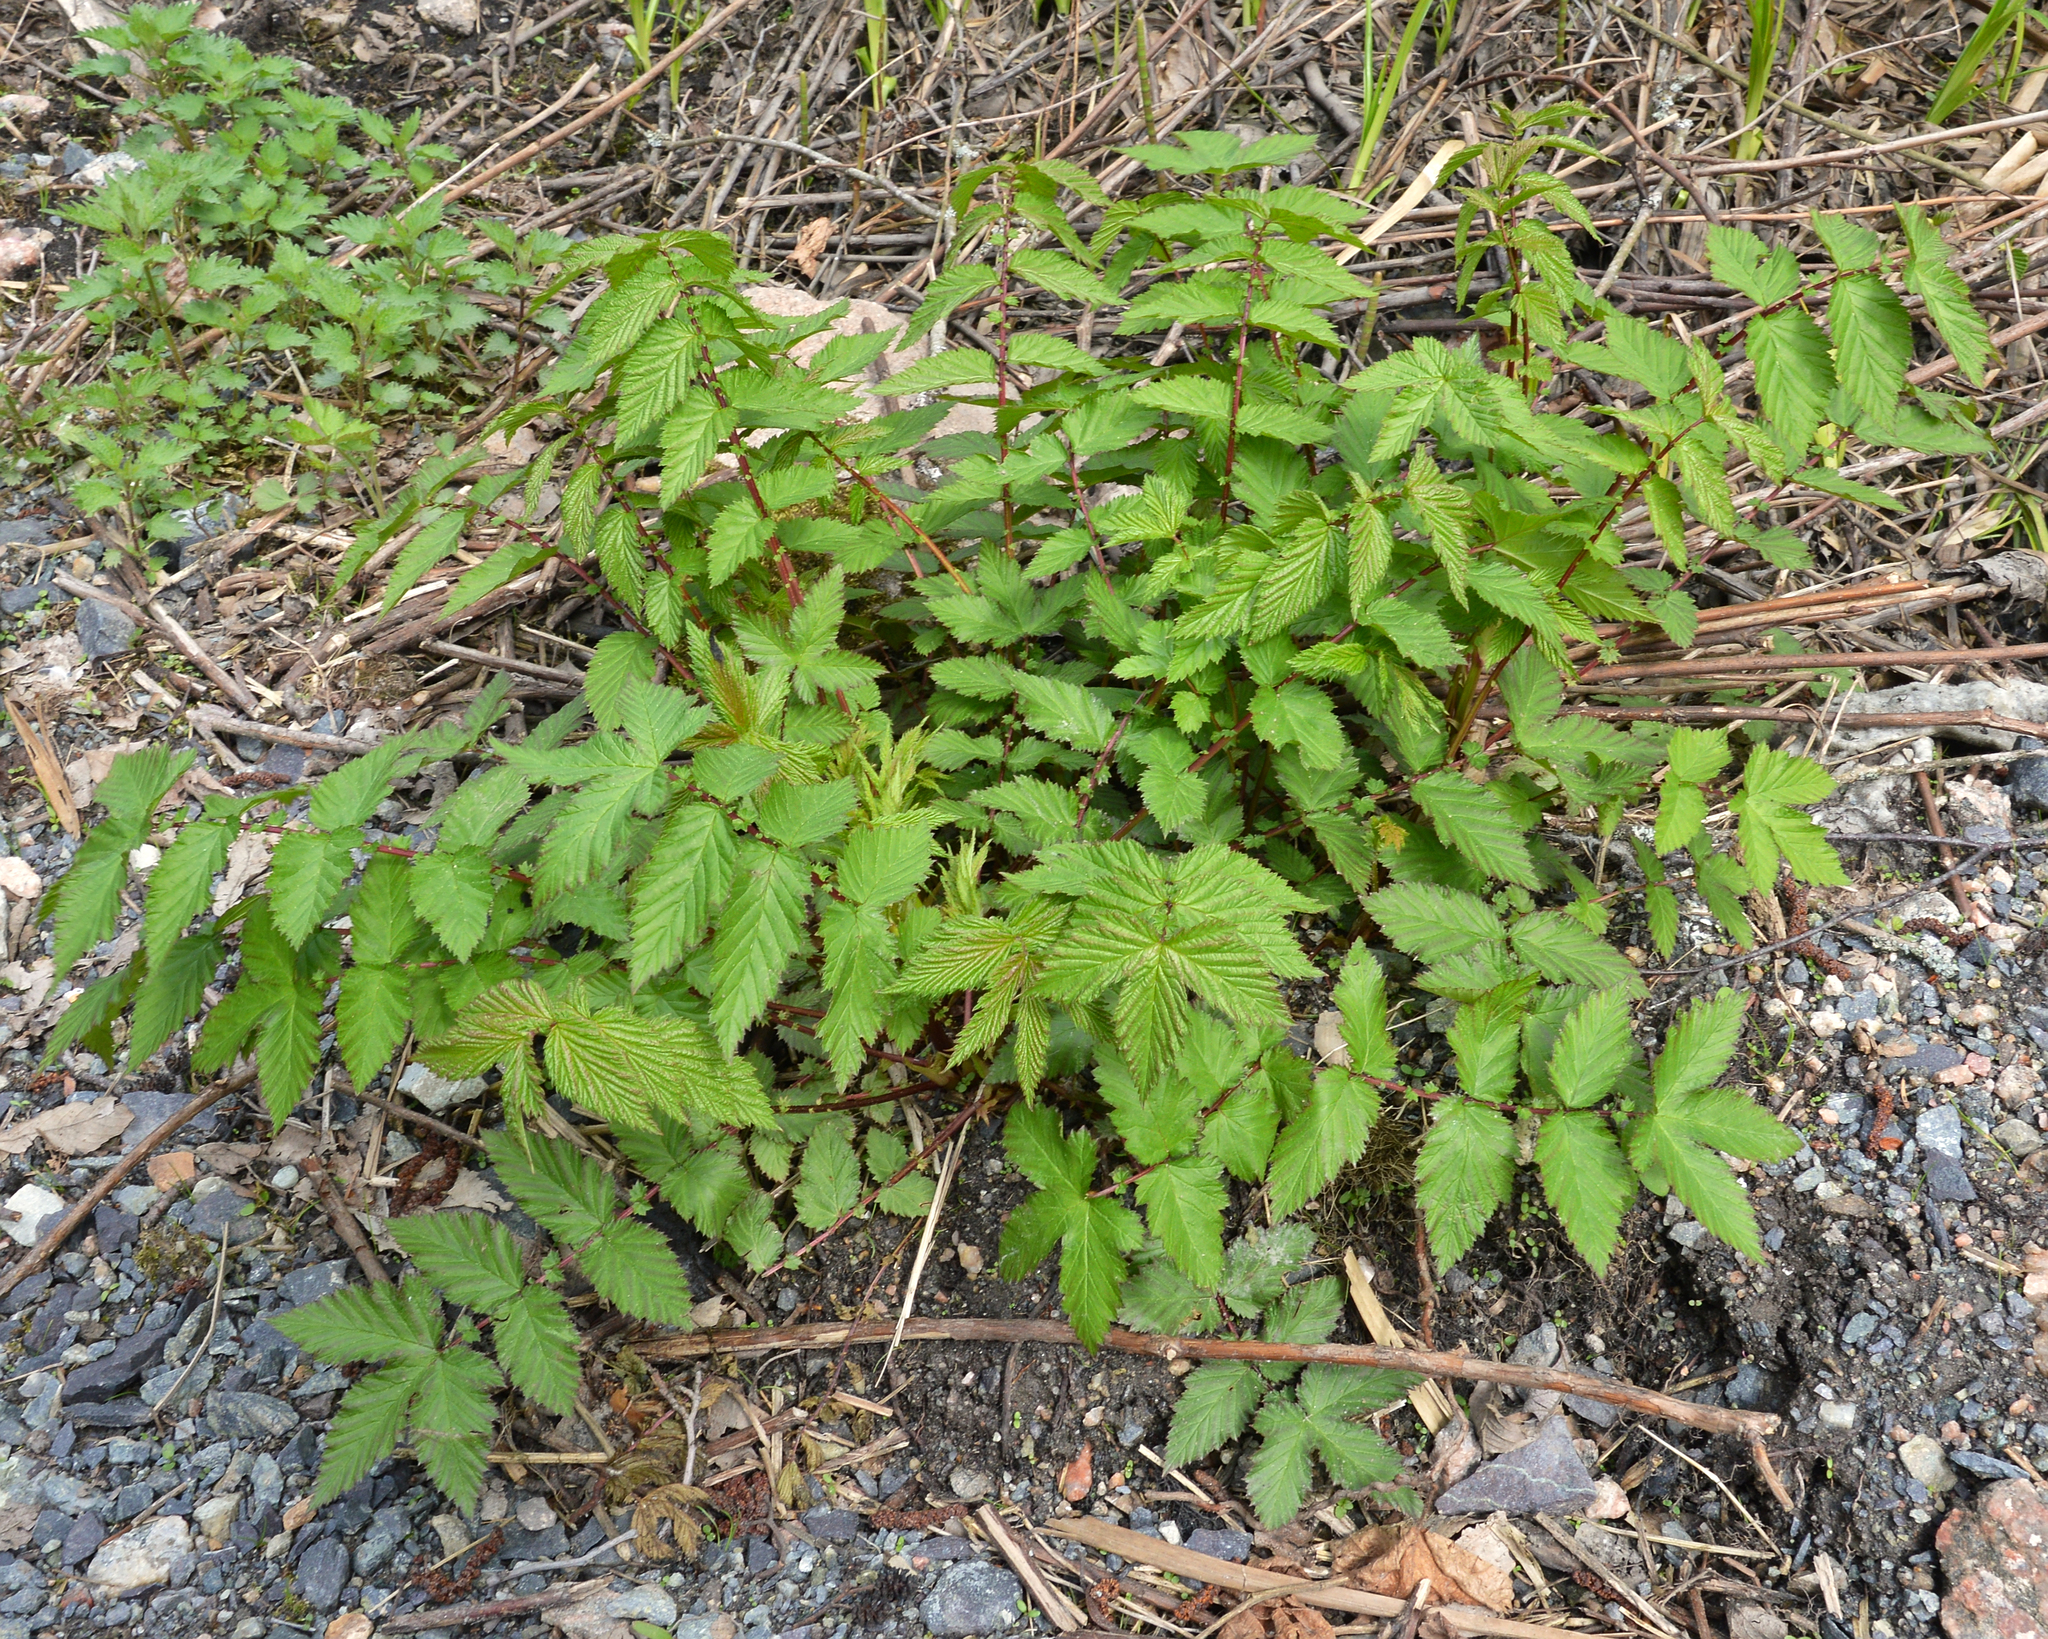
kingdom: Plantae
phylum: Tracheophyta
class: Magnoliopsida
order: Rosales
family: Rosaceae
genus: Filipendula
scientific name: Filipendula ulmaria
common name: Meadowsweet
